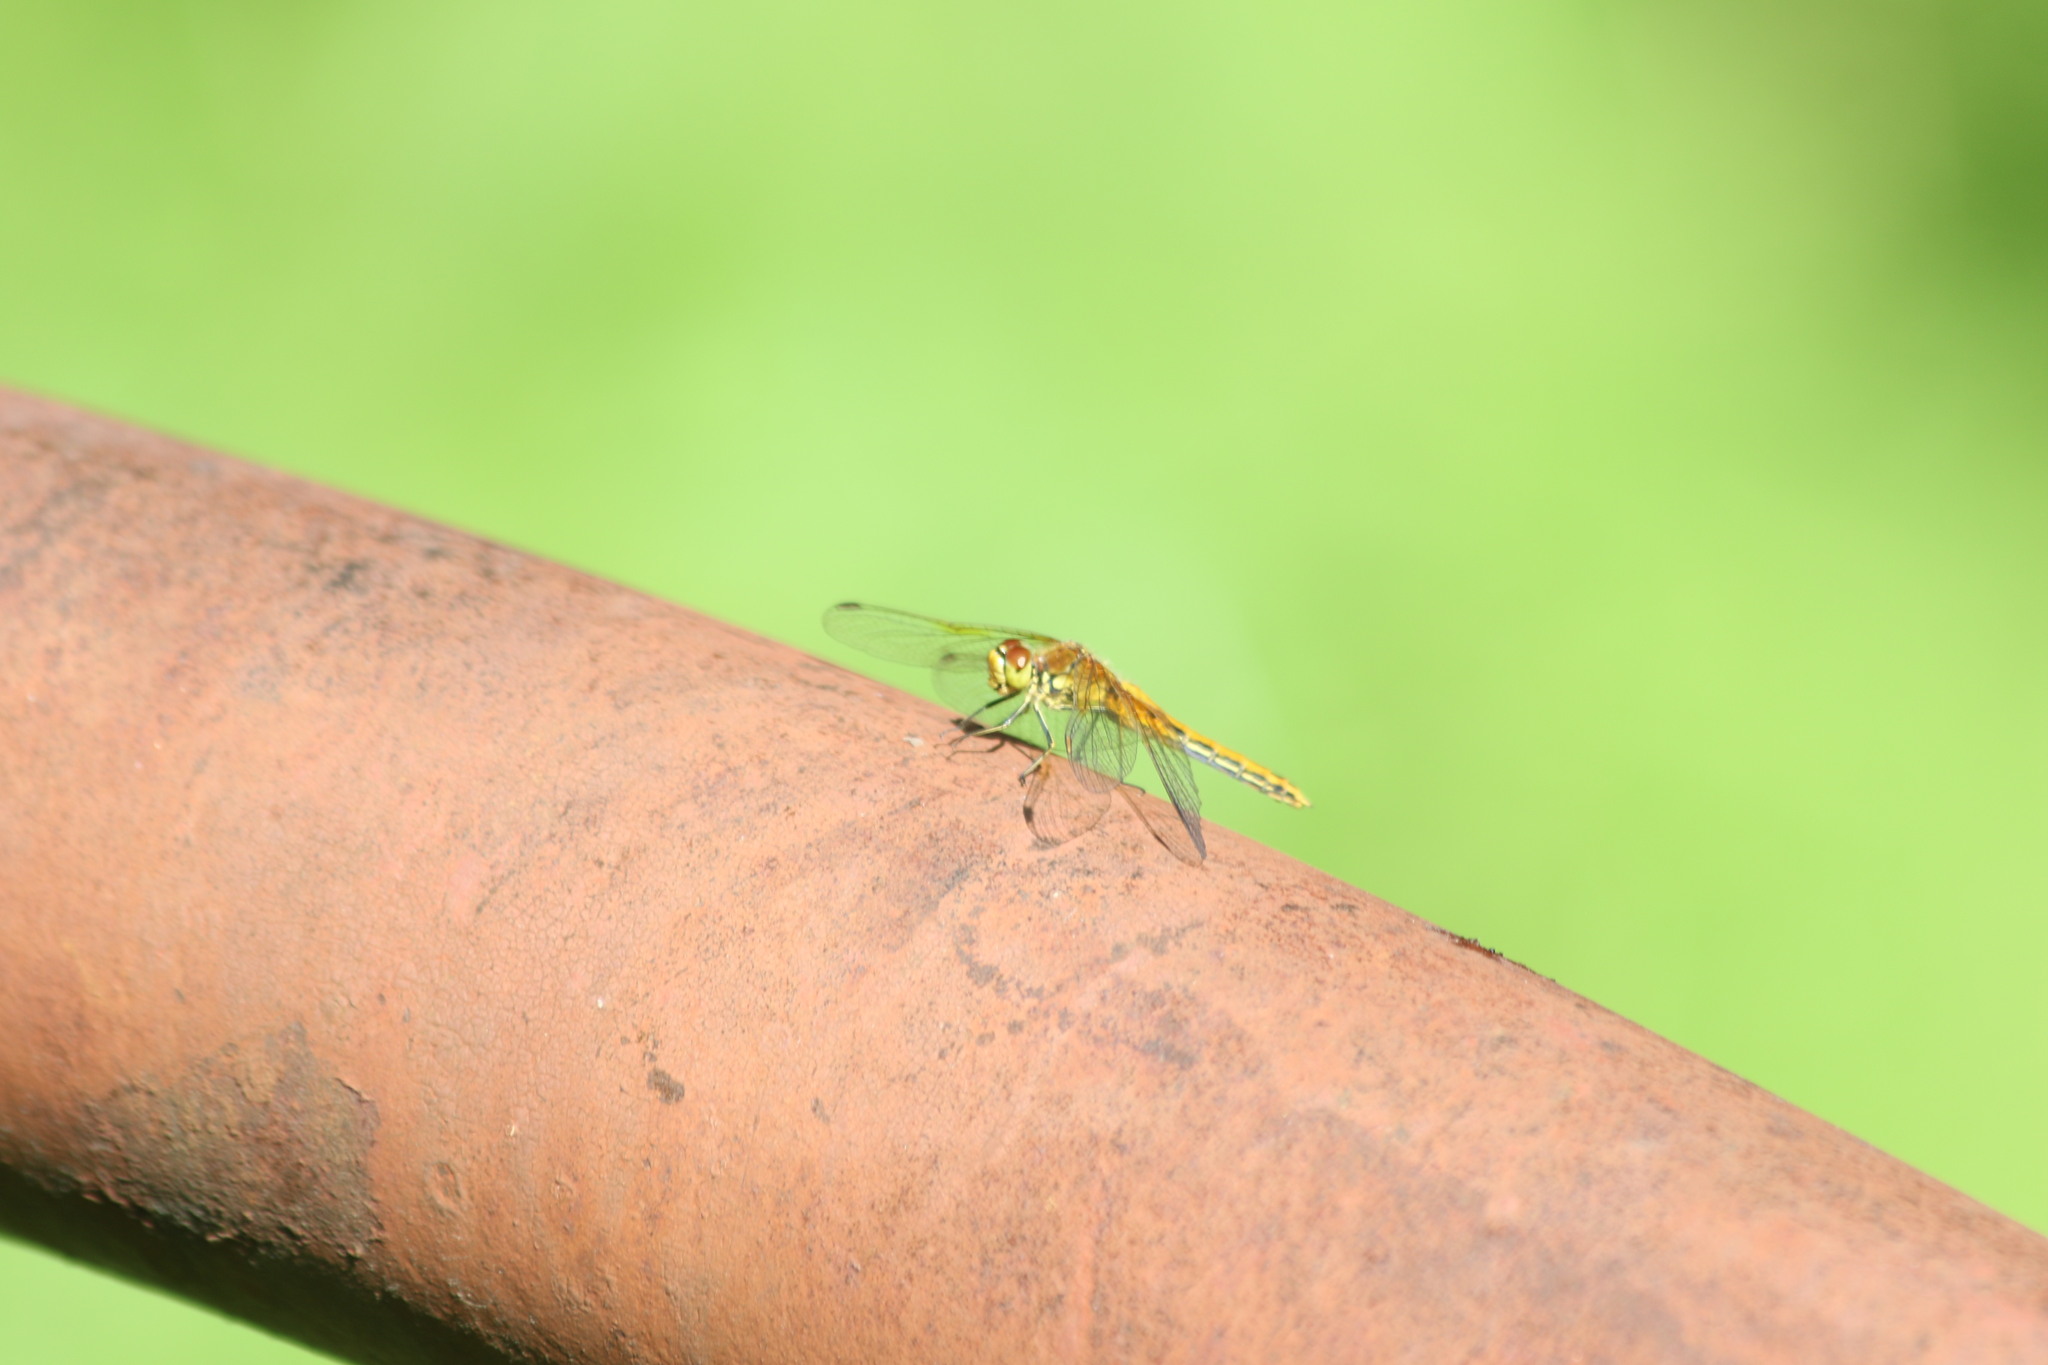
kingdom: Animalia
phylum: Arthropoda
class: Insecta
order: Odonata
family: Libellulidae
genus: Sympetrum
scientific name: Sympetrum flaveolum
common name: Yellow-winged darter
